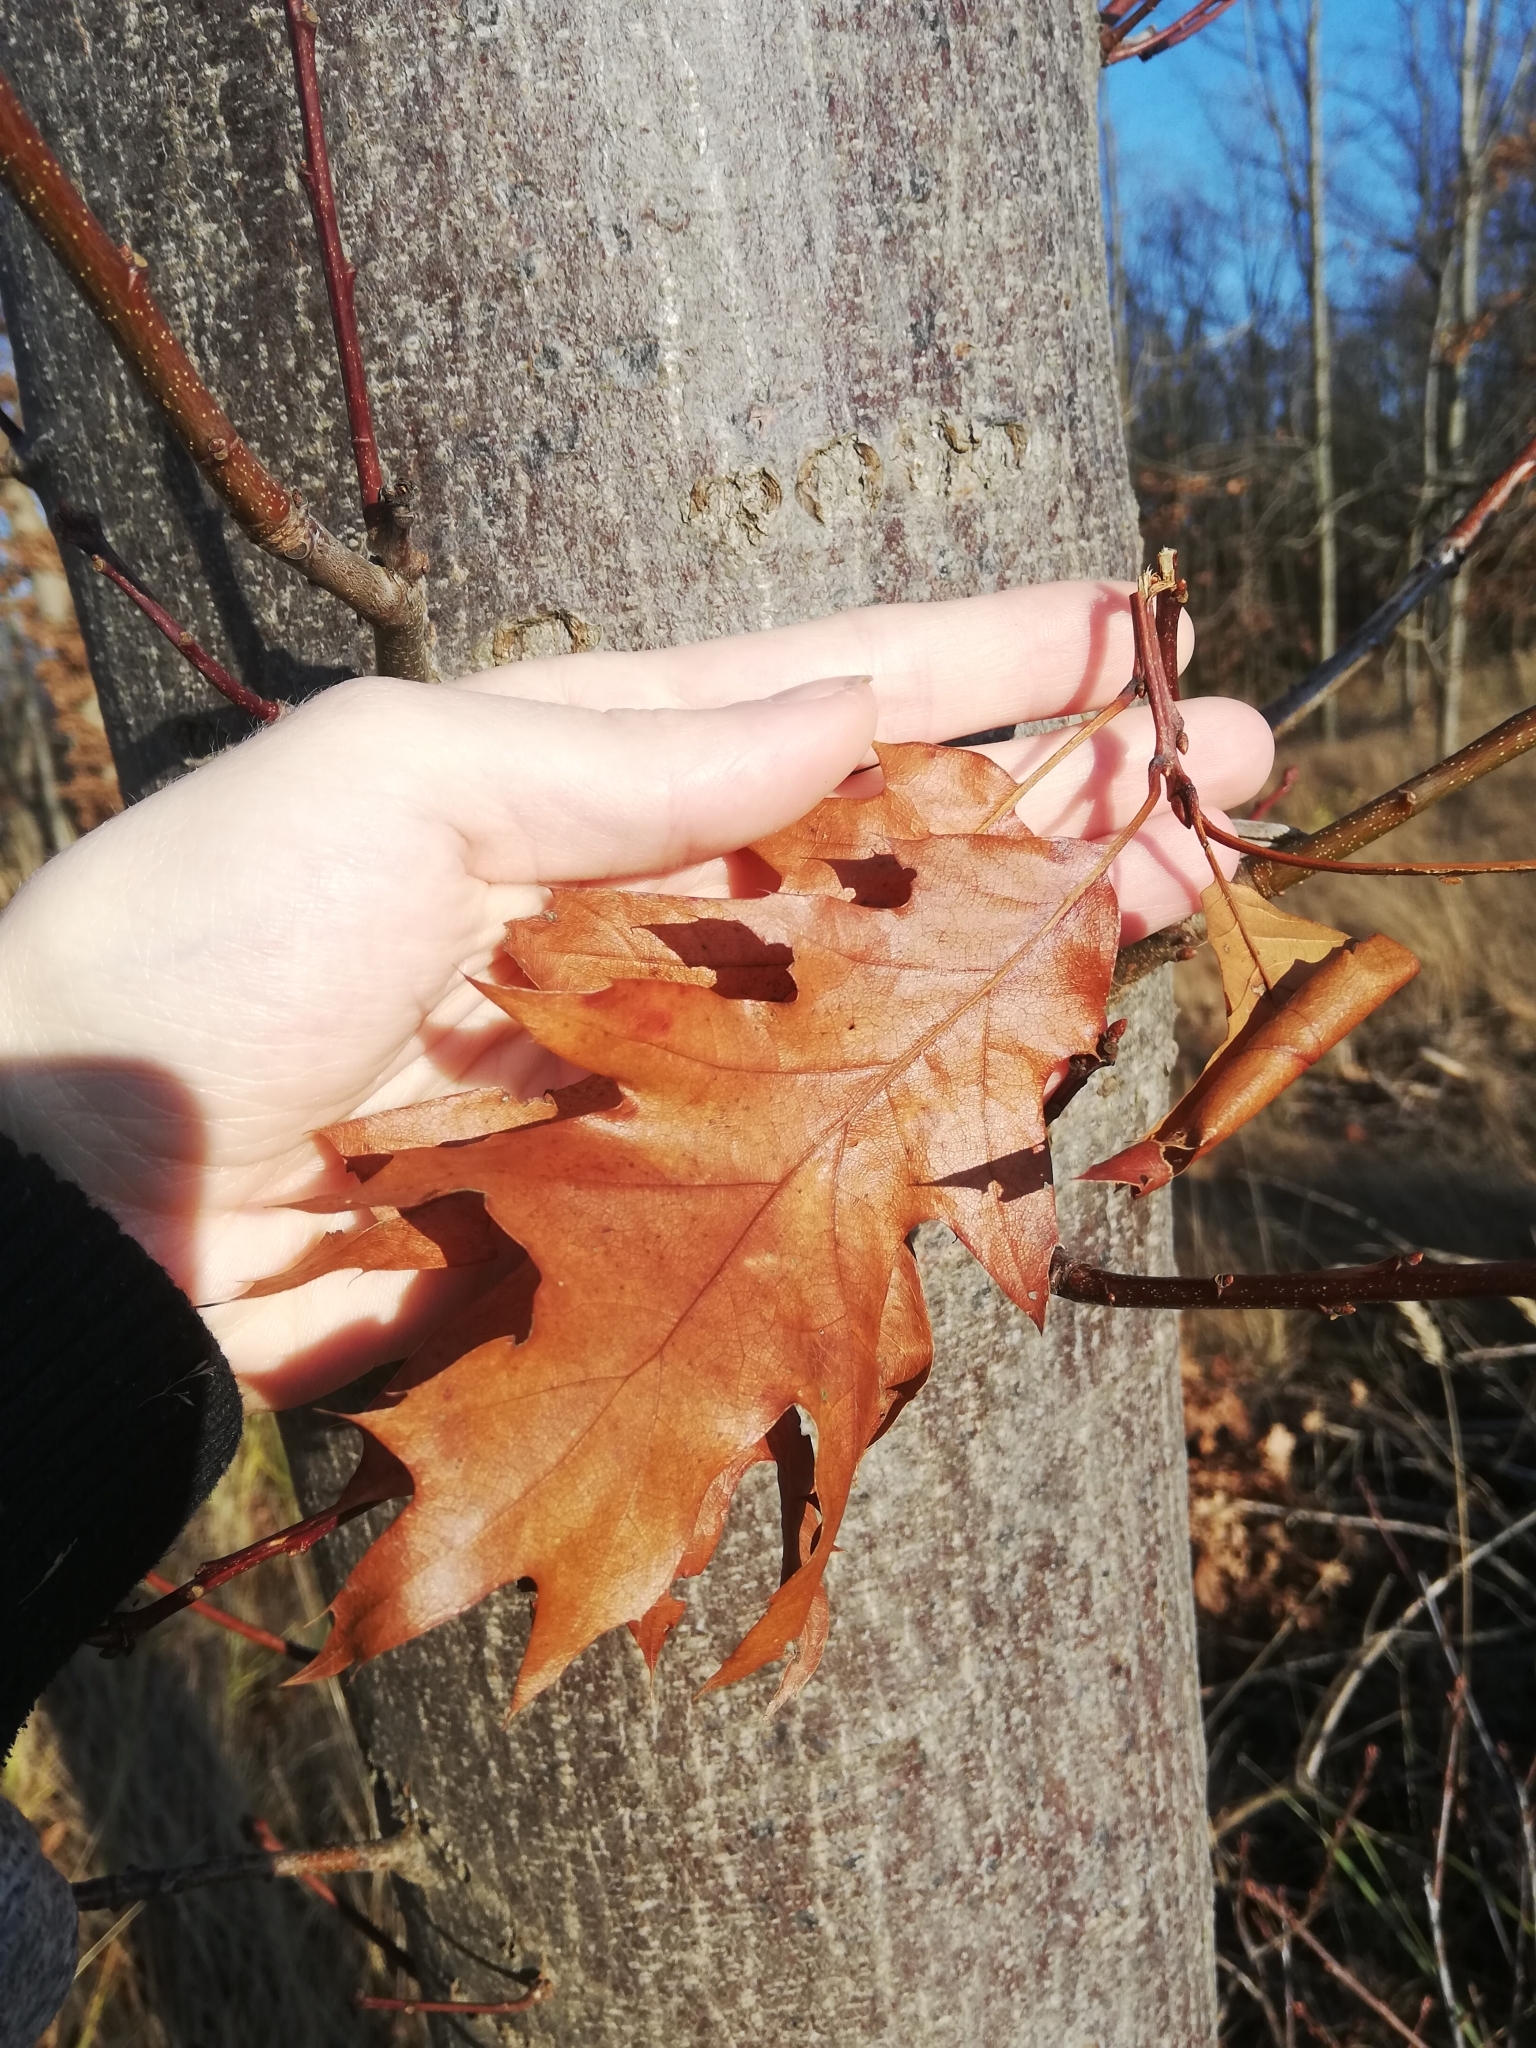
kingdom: Plantae
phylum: Tracheophyta
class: Magnoliopsida
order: Fagales
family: Fagaceae
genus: Quercus
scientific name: Quercus rubra
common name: Red oak
